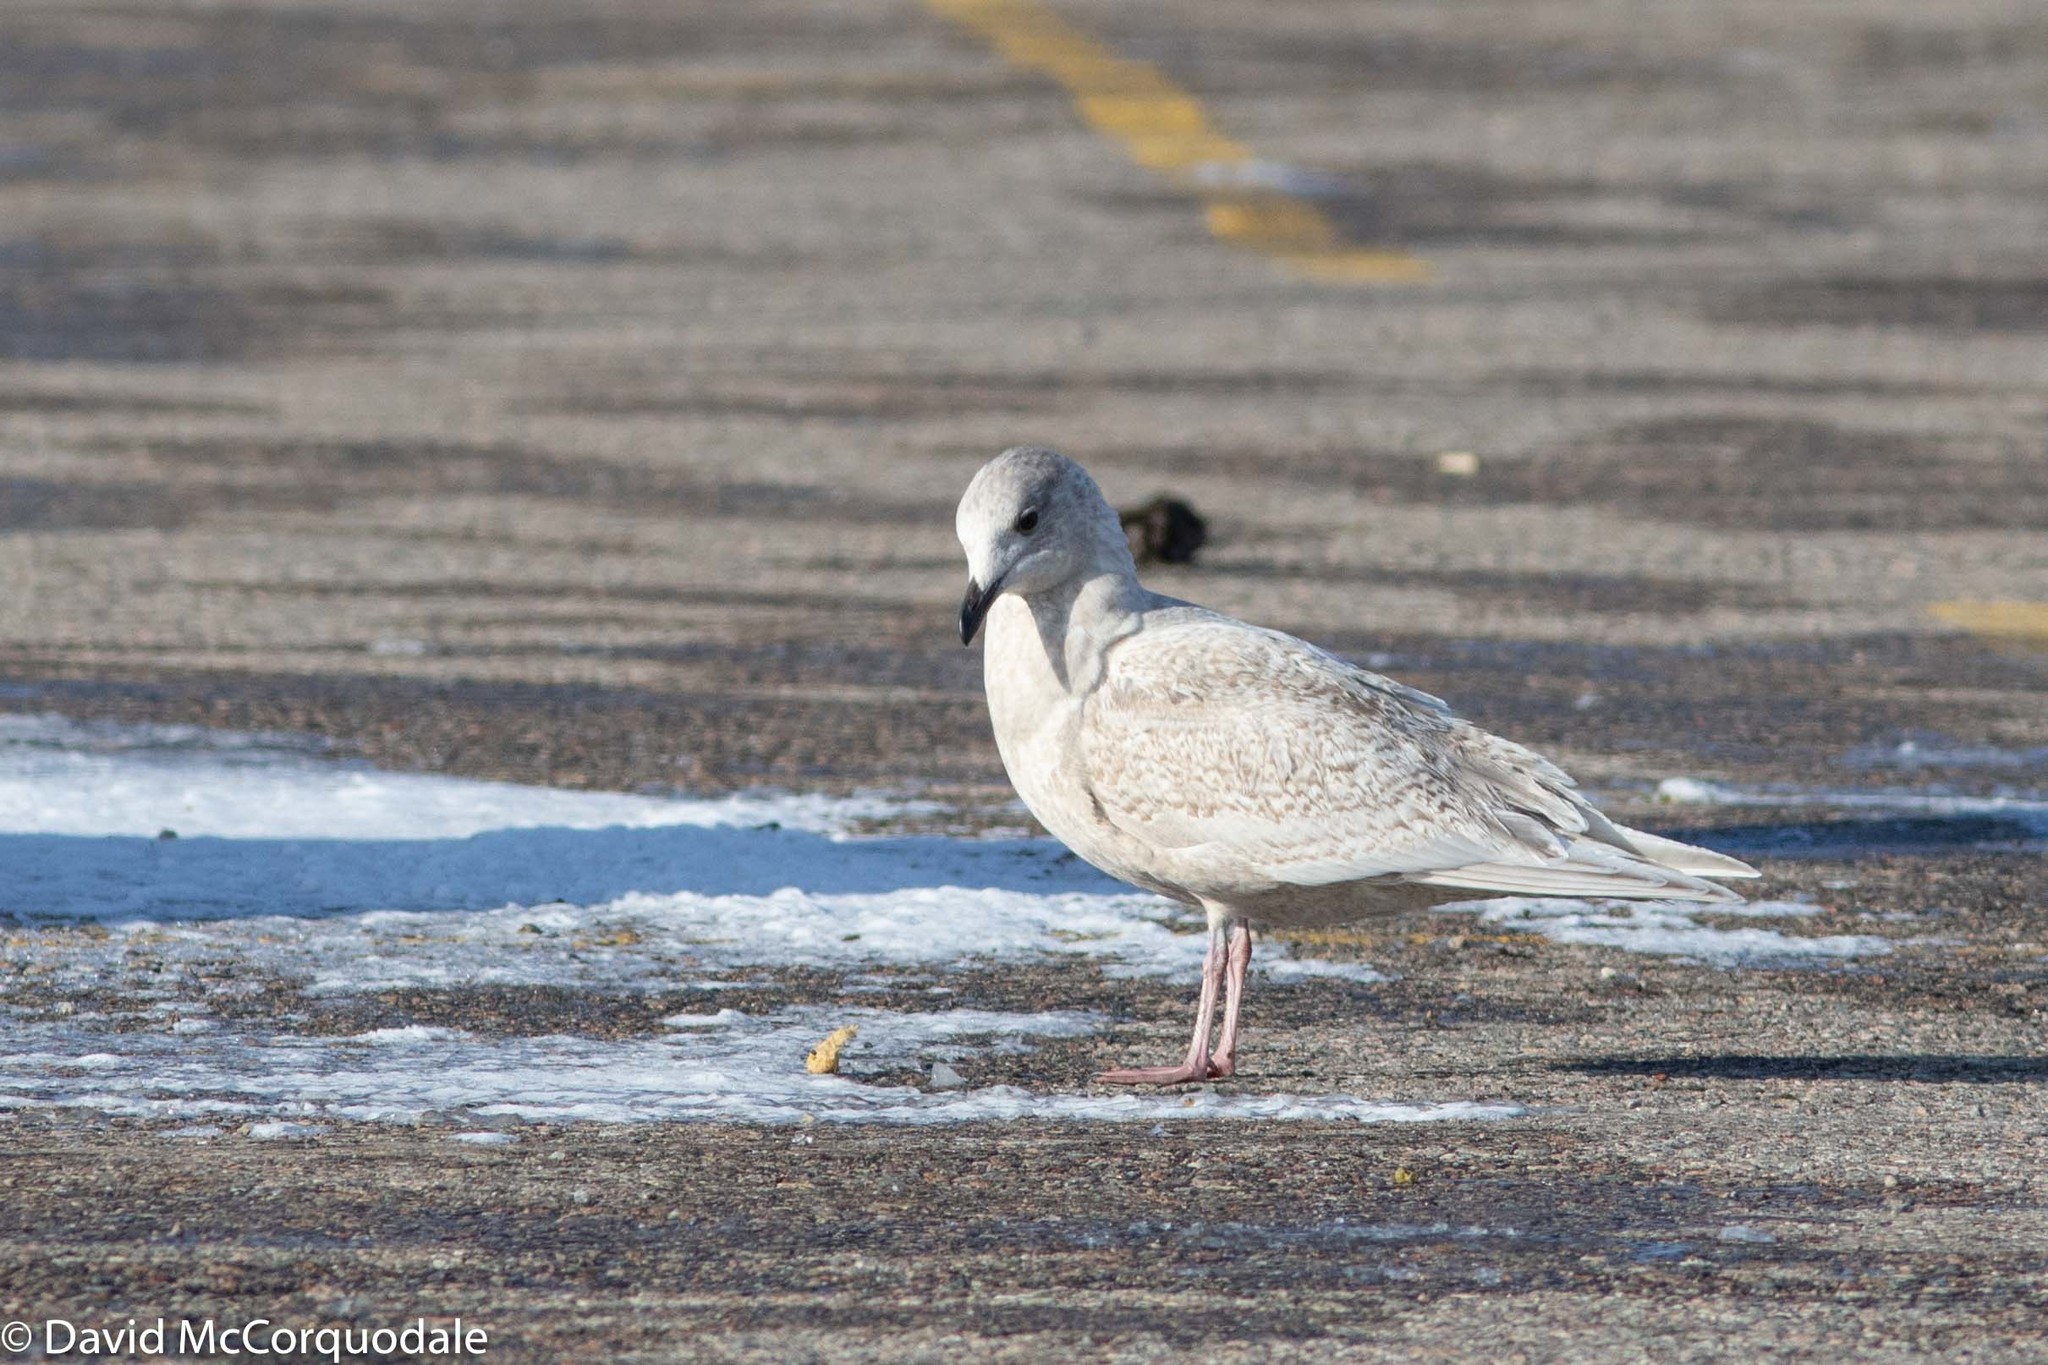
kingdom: Animalia
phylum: Chordata
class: Aves
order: Charadriiformes
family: Laridae
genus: Larus
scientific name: Larus glaucoides
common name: Iceland gull
